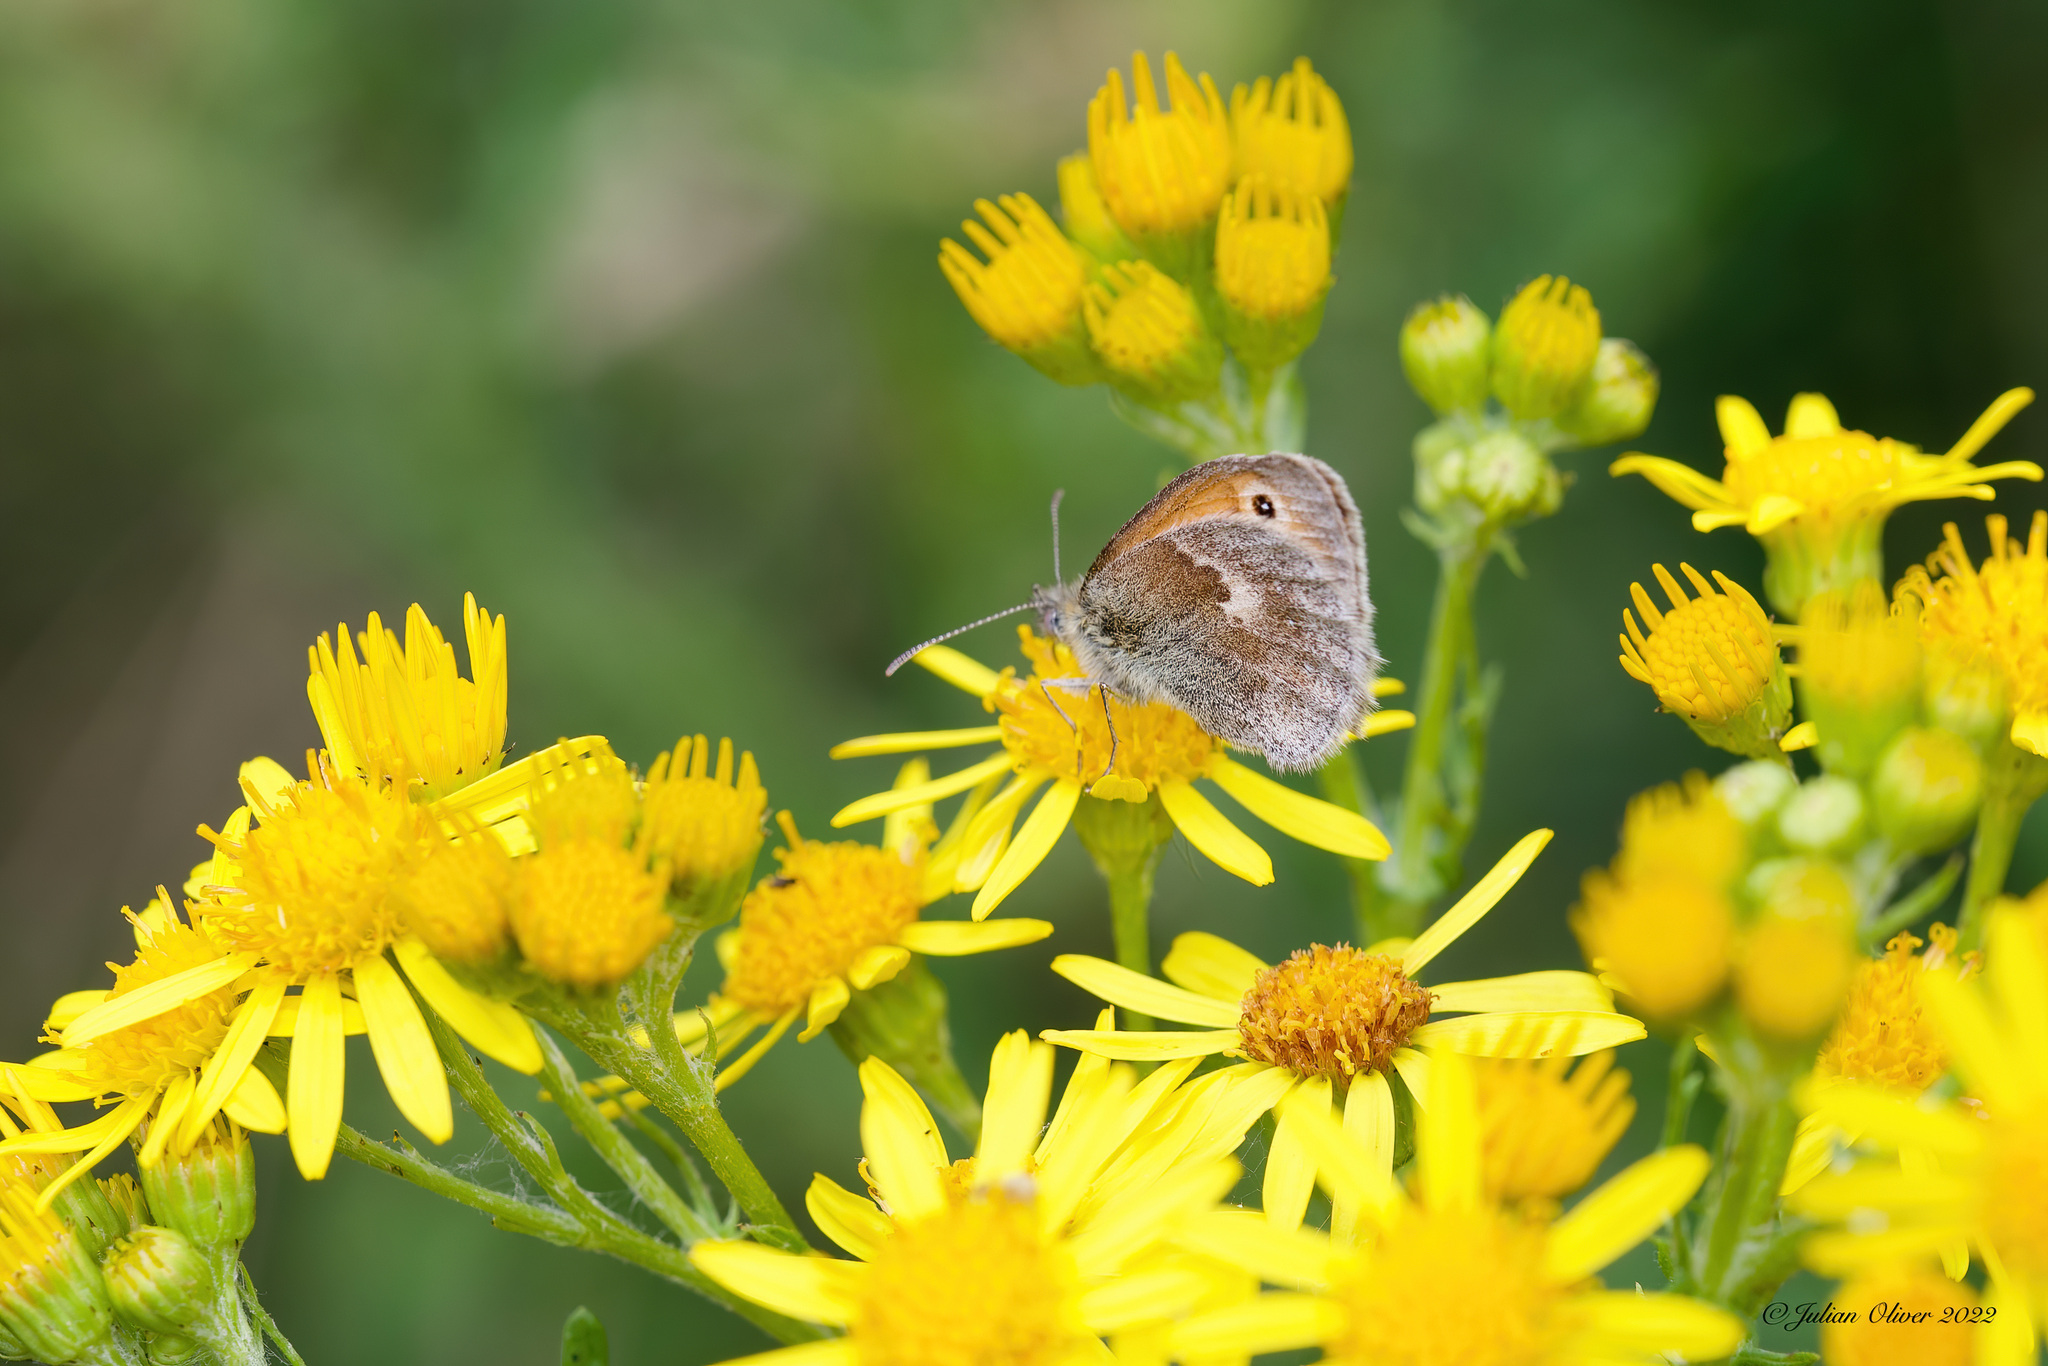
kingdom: Animalia
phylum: Arthropoda
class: Insecta
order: Lepidoptera
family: Nymphalidae
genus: Coenonympha
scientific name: Coenonympha pamphilus
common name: Small heath
